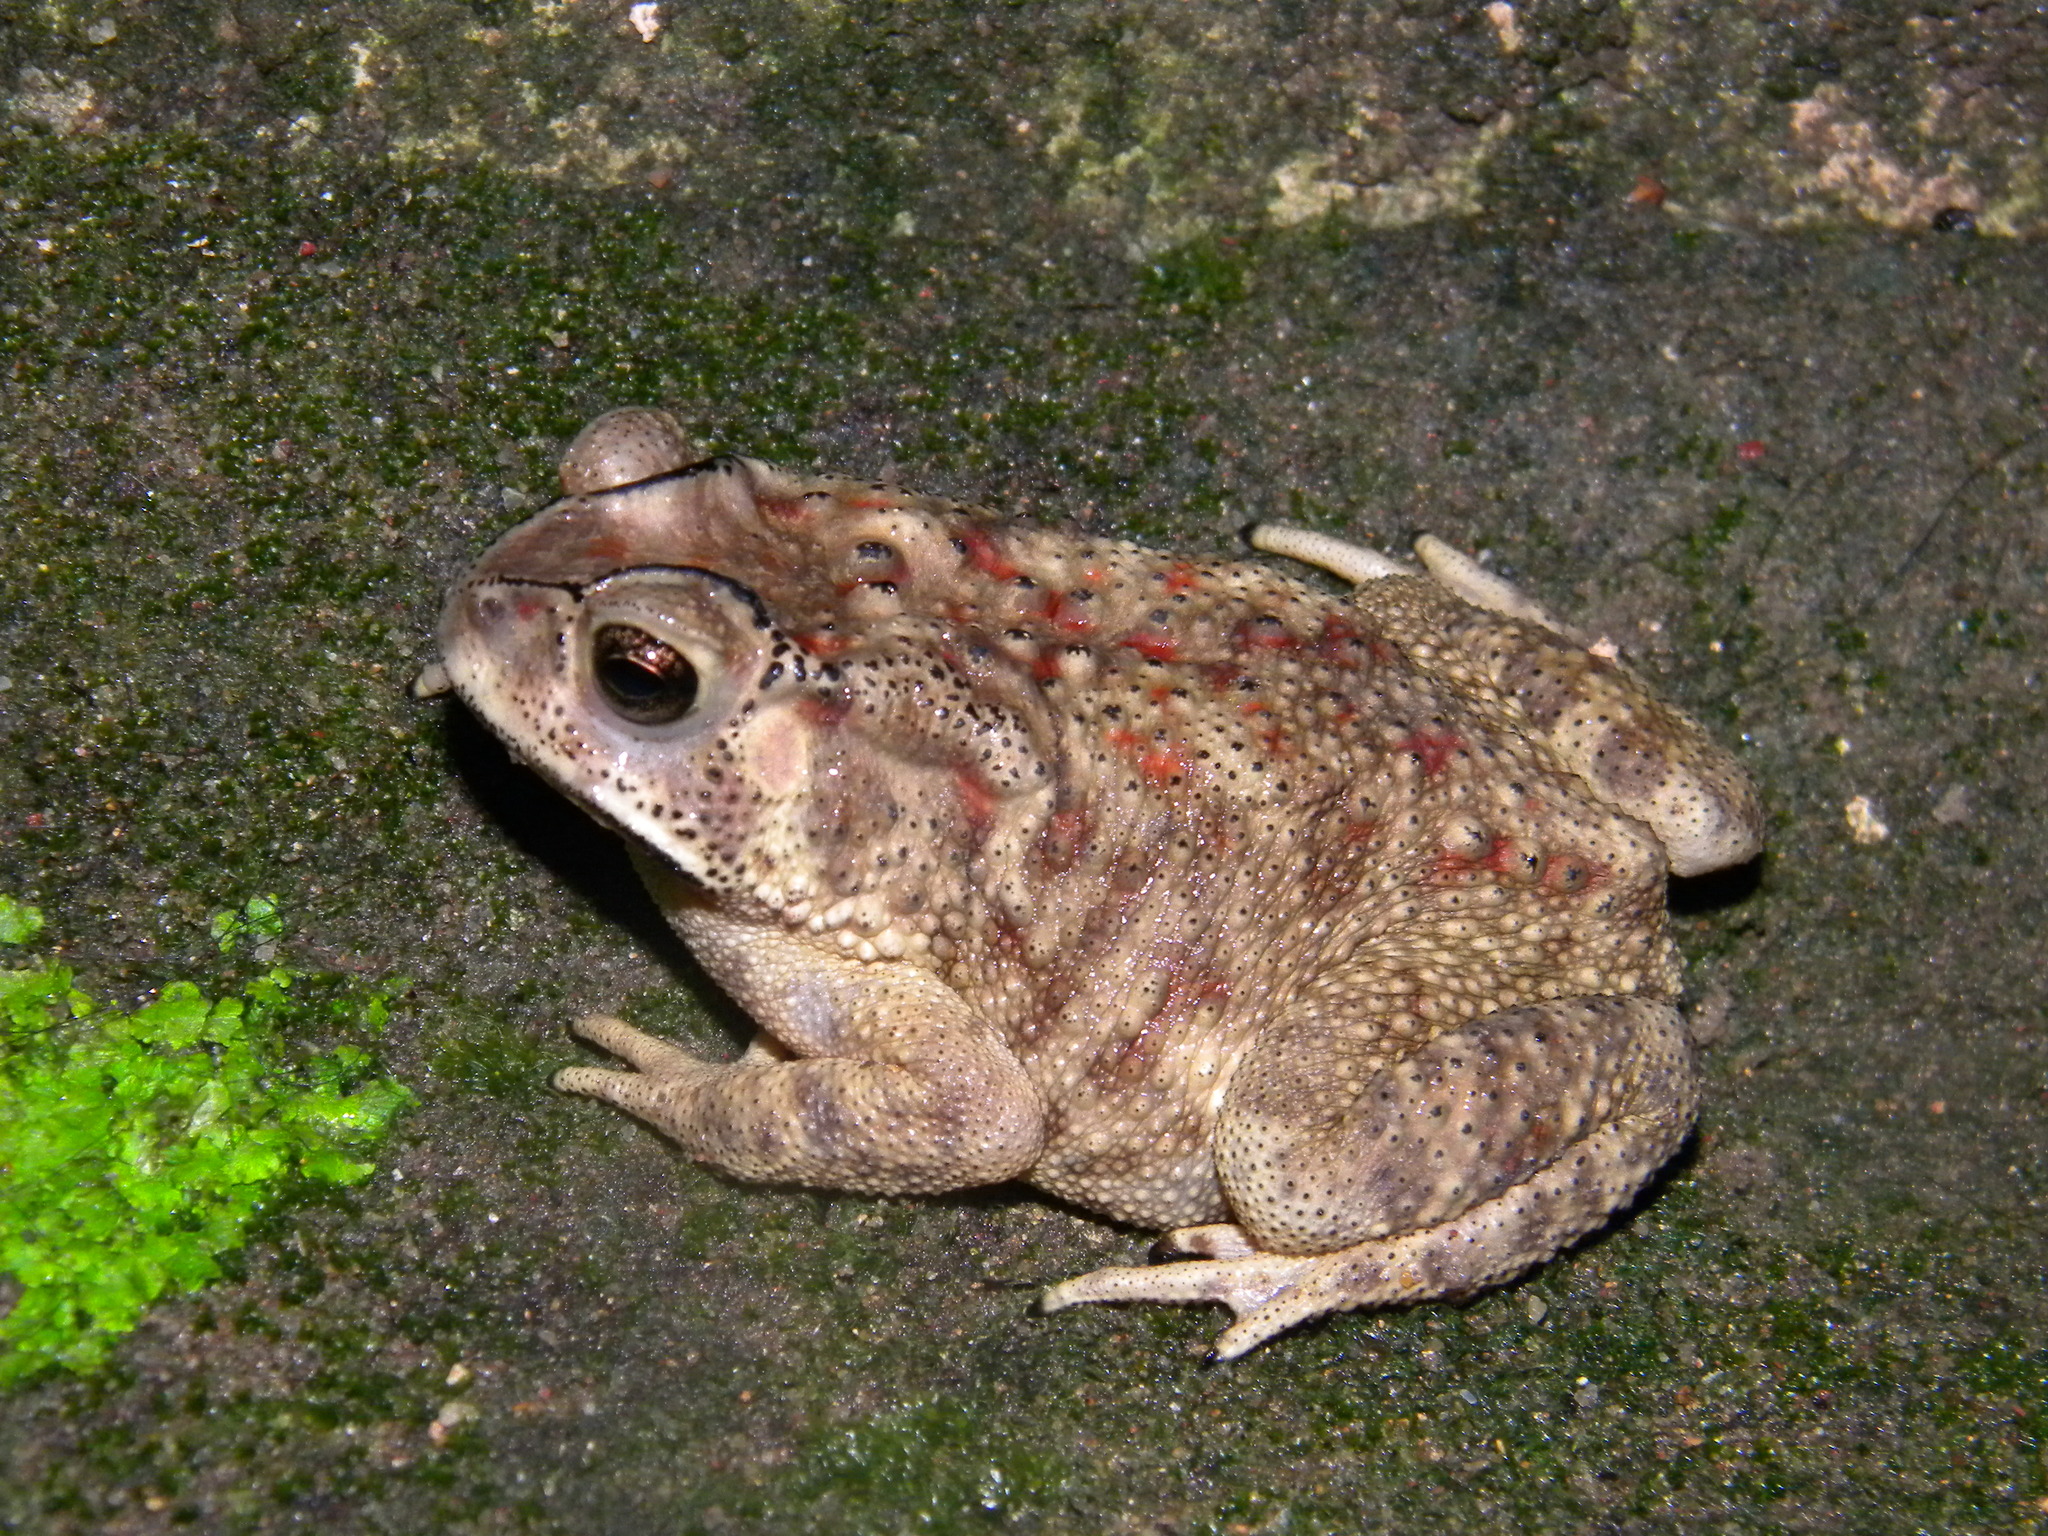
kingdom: Animalia
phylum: Chordata
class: Amphibia
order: Anura
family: Bufonidae
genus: Duttaphrynus
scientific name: Duttaphrynus melanostictus
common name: Common sunda toad
